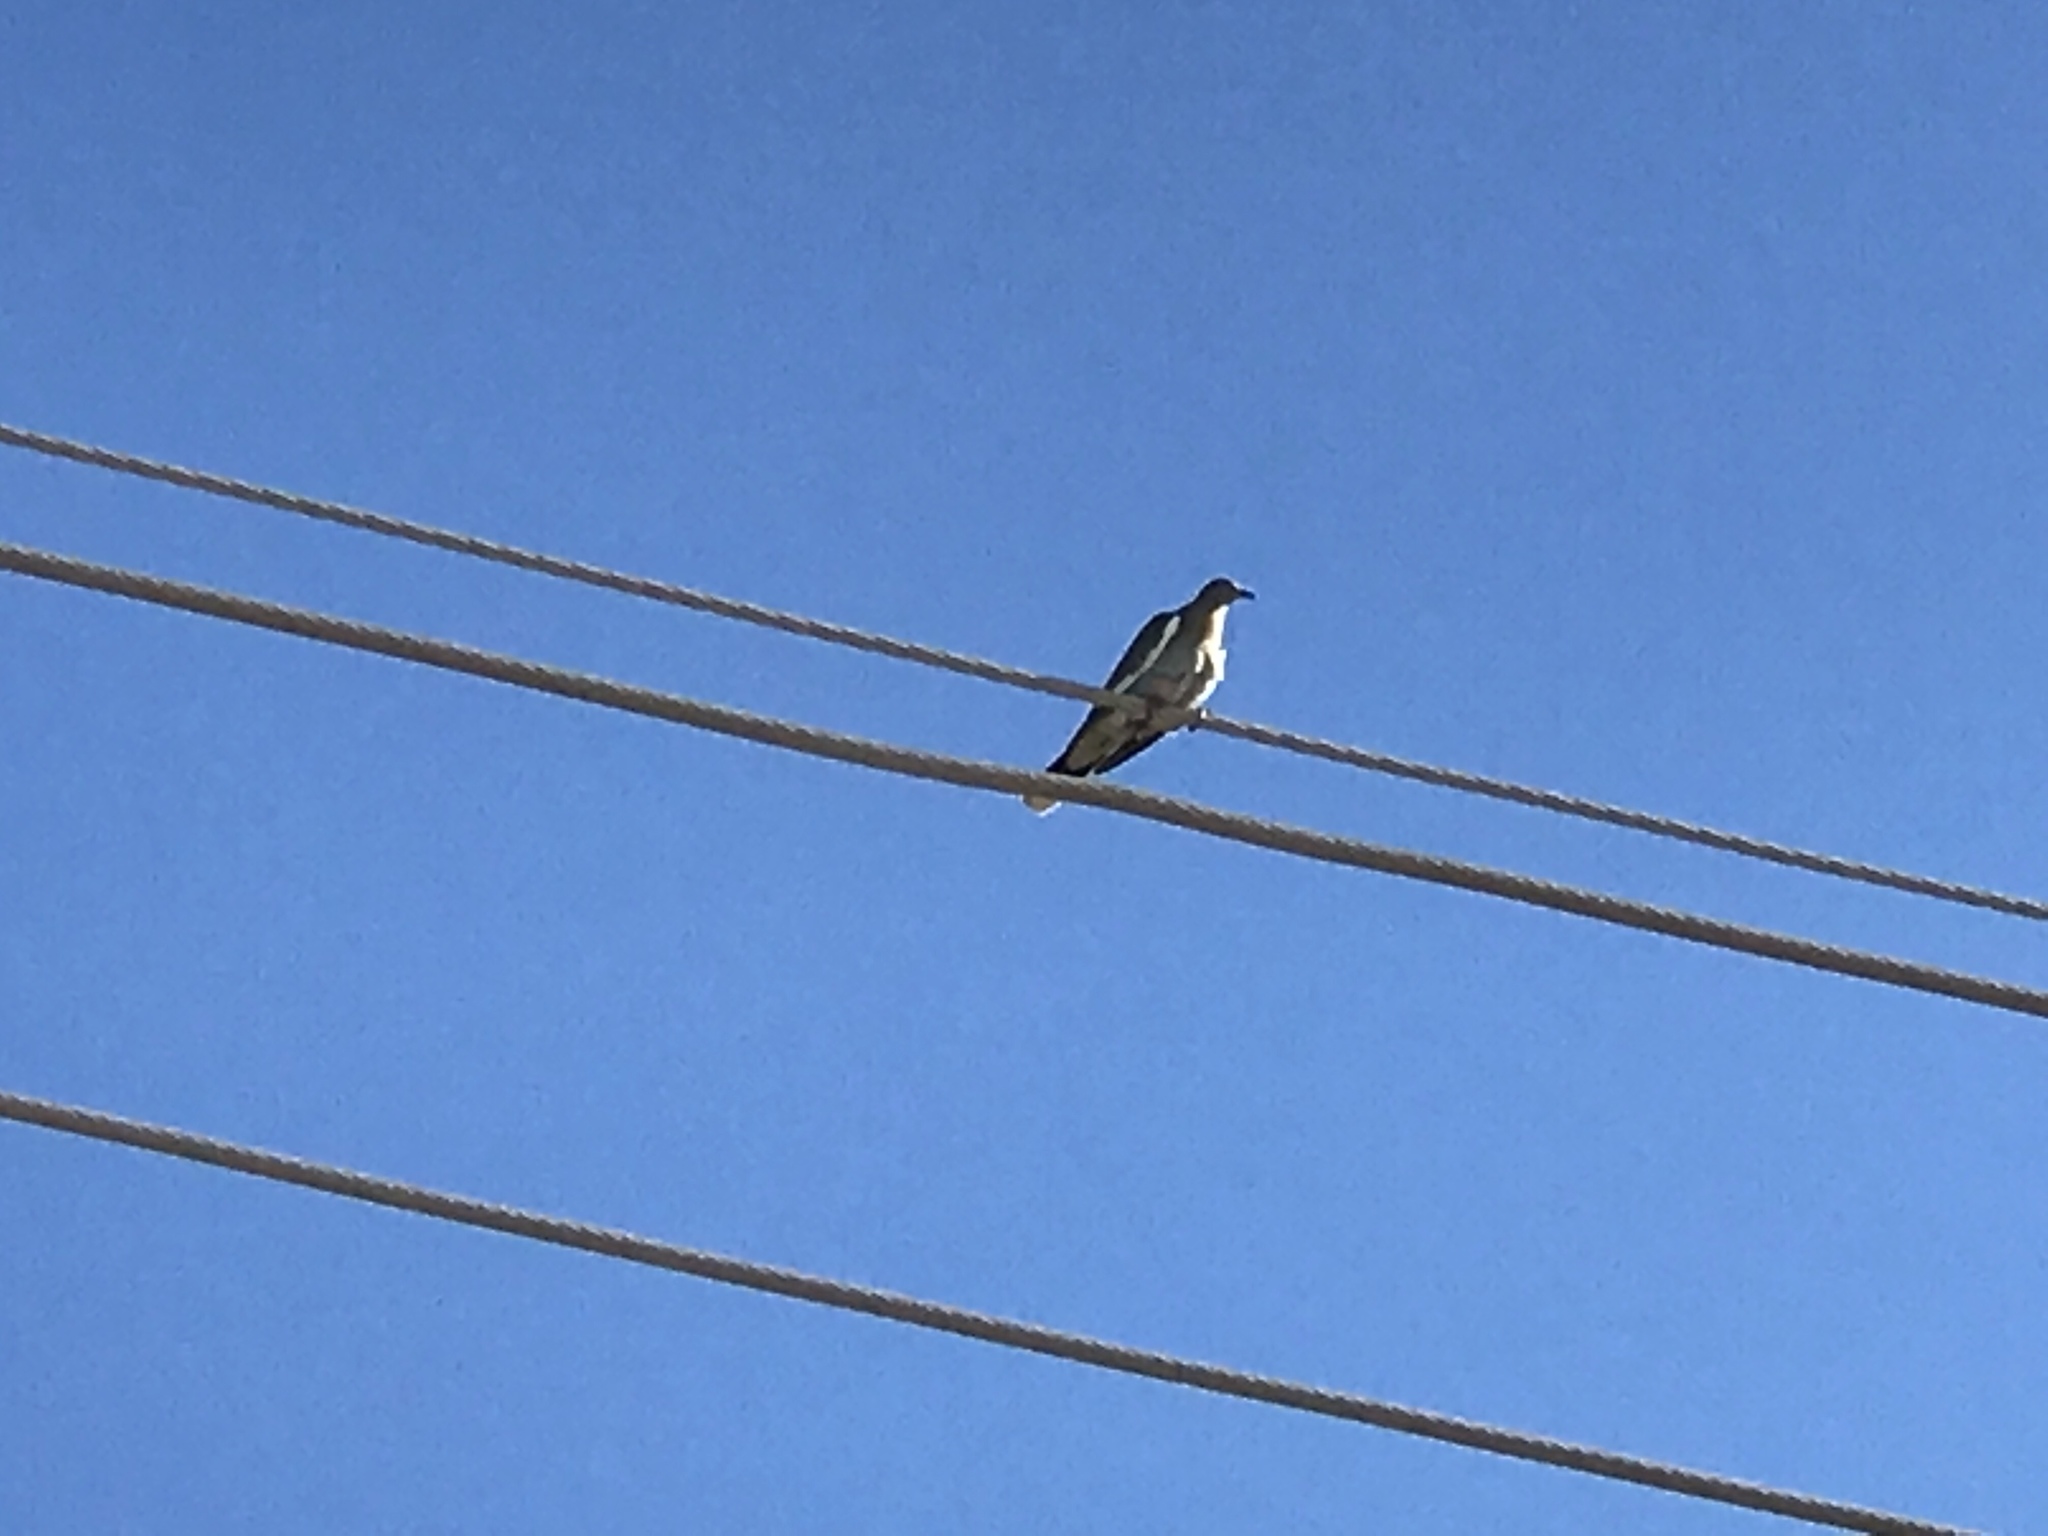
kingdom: Animalia
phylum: Chordata
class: Aves
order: Columbiformes
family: Columbidae
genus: Zenaida
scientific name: Zenaida asiatica
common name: White-winged dove
